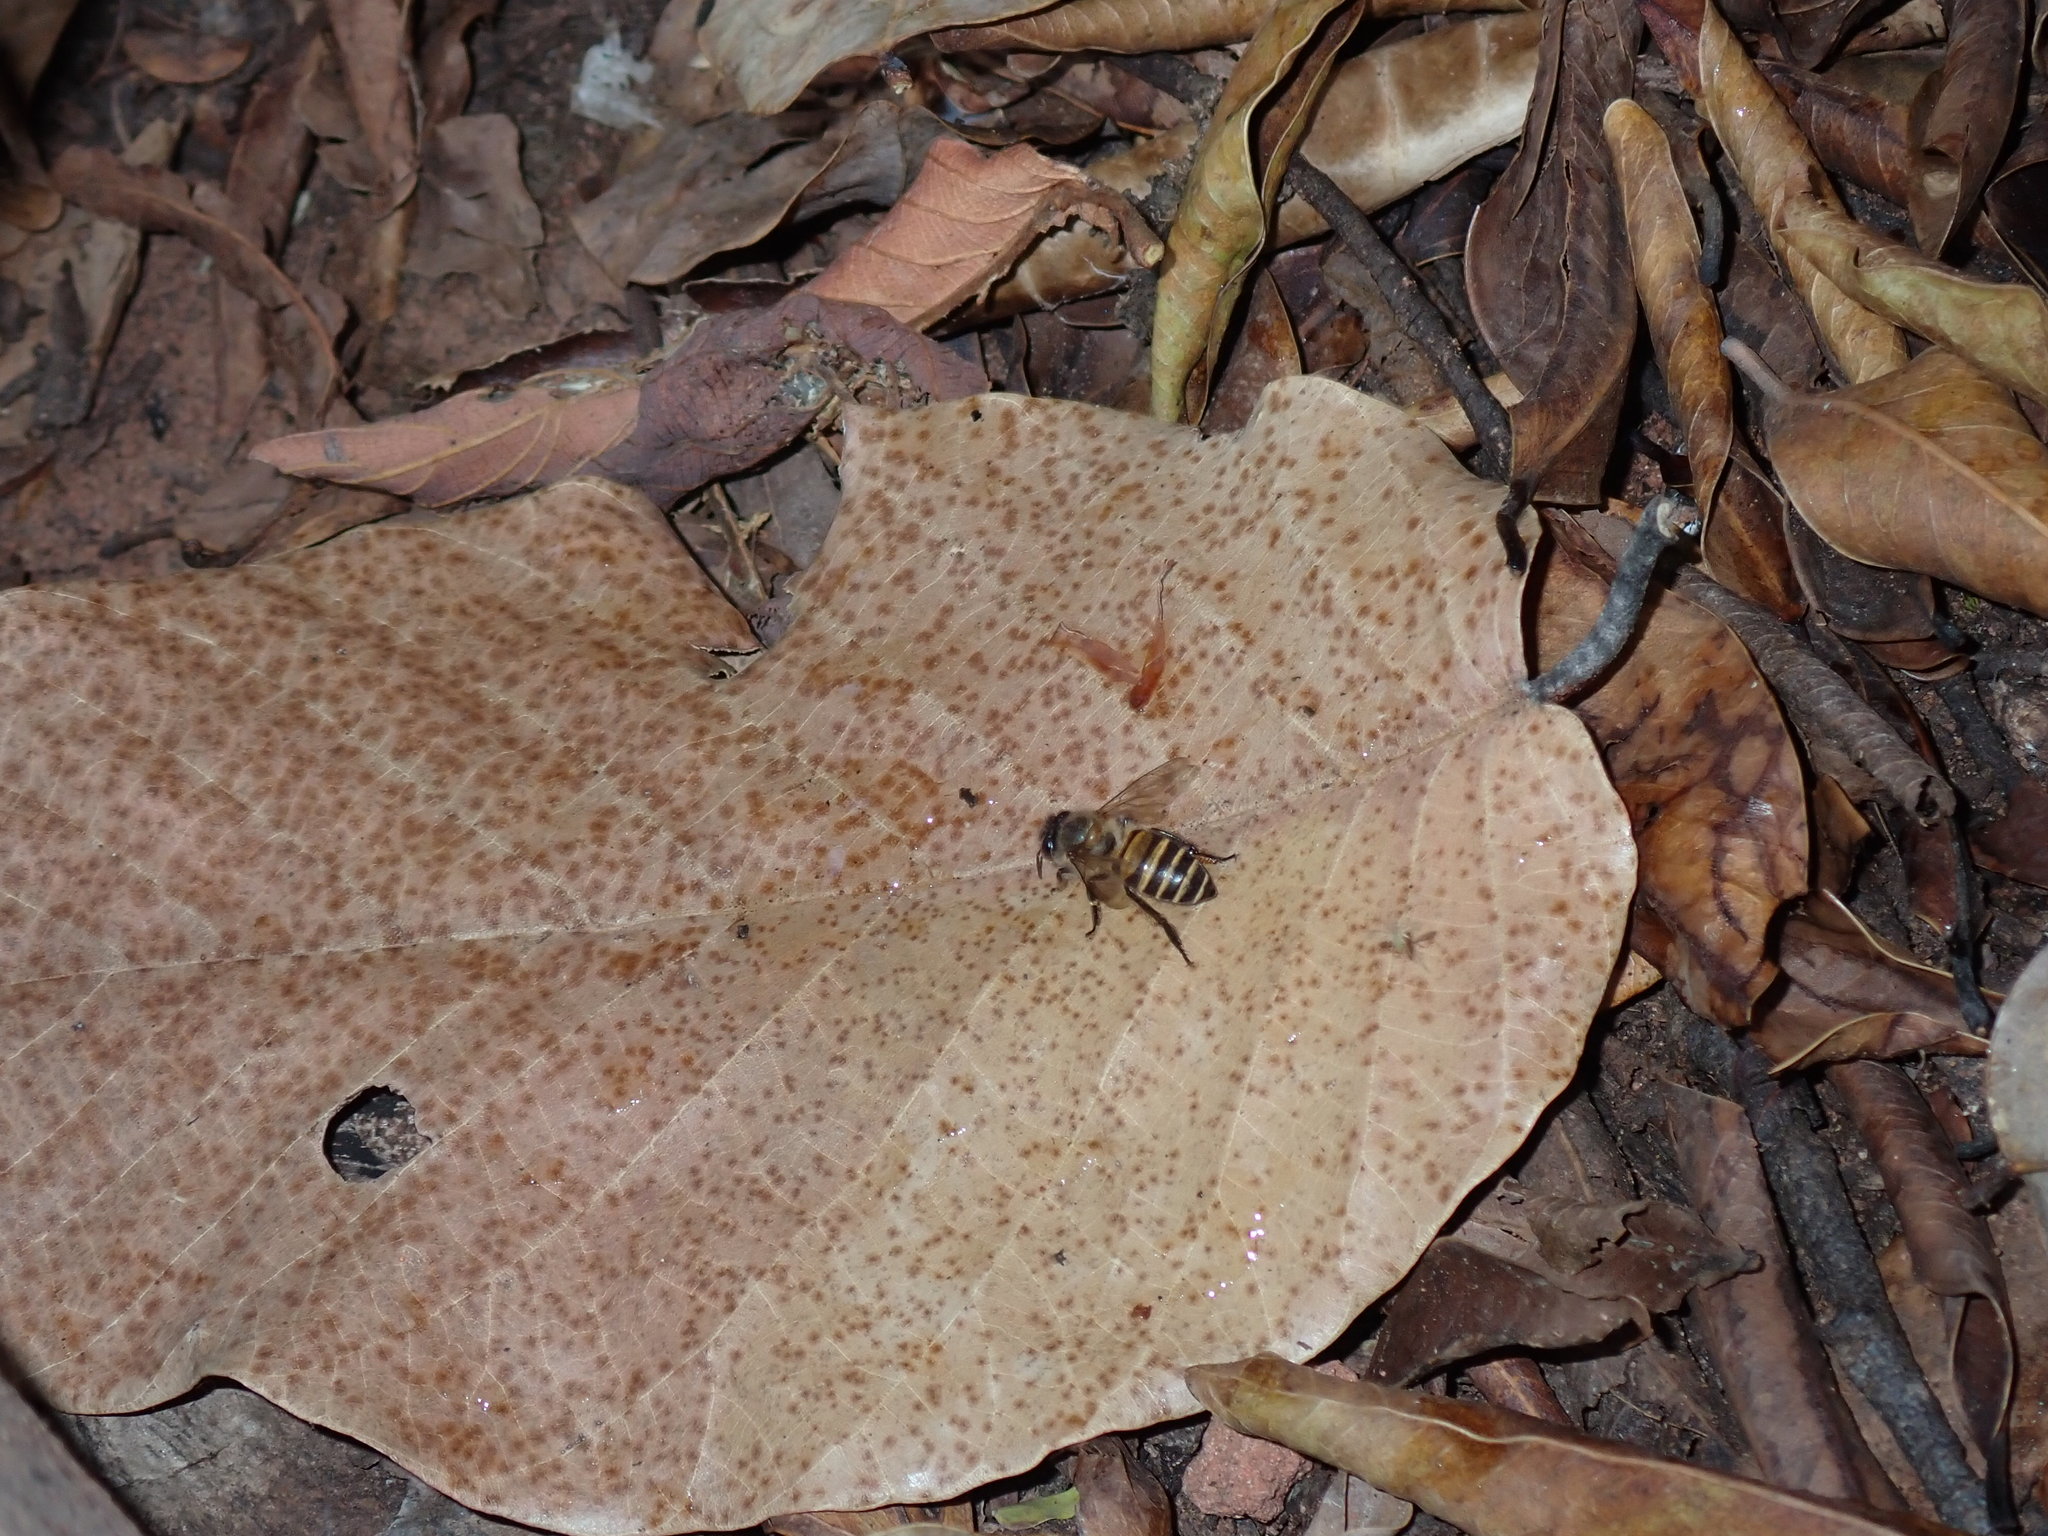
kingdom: Animalia
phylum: Arthropoda
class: Insecta
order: Hymenoptera
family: Apidae
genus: Apis
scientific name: Apis cerana
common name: Honey bee
